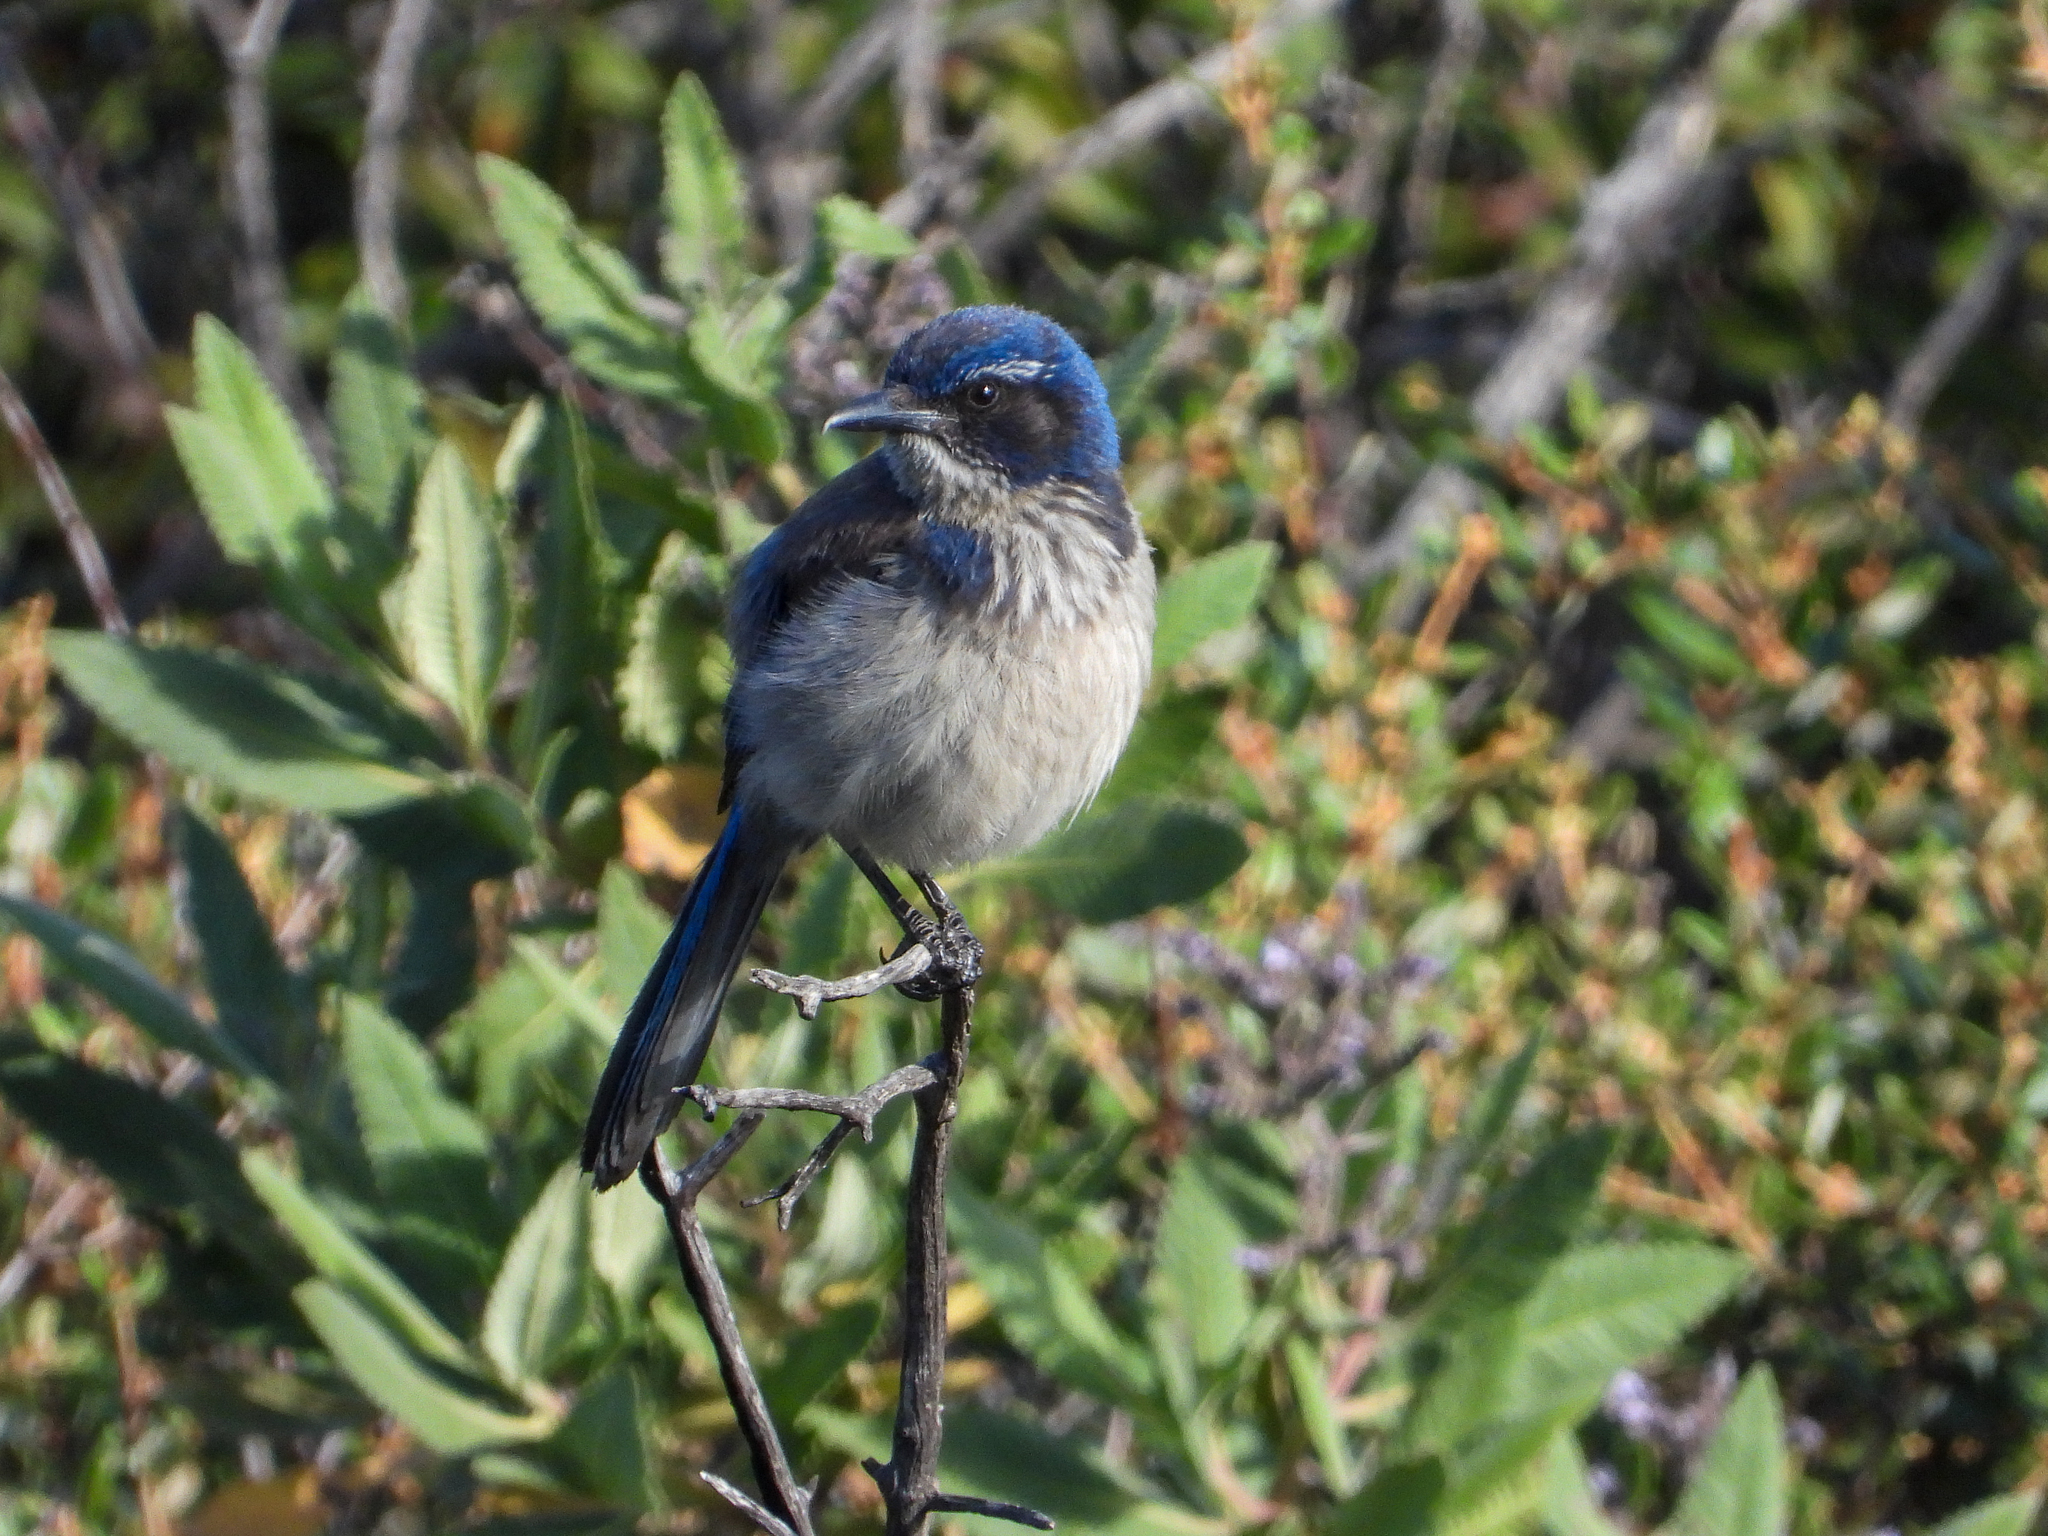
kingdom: Animalia
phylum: Chordata
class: Aves
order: Passeriformes
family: Corvidae
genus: Aphelocoma
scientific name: Aphelocoma californica
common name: California scrub-jay
